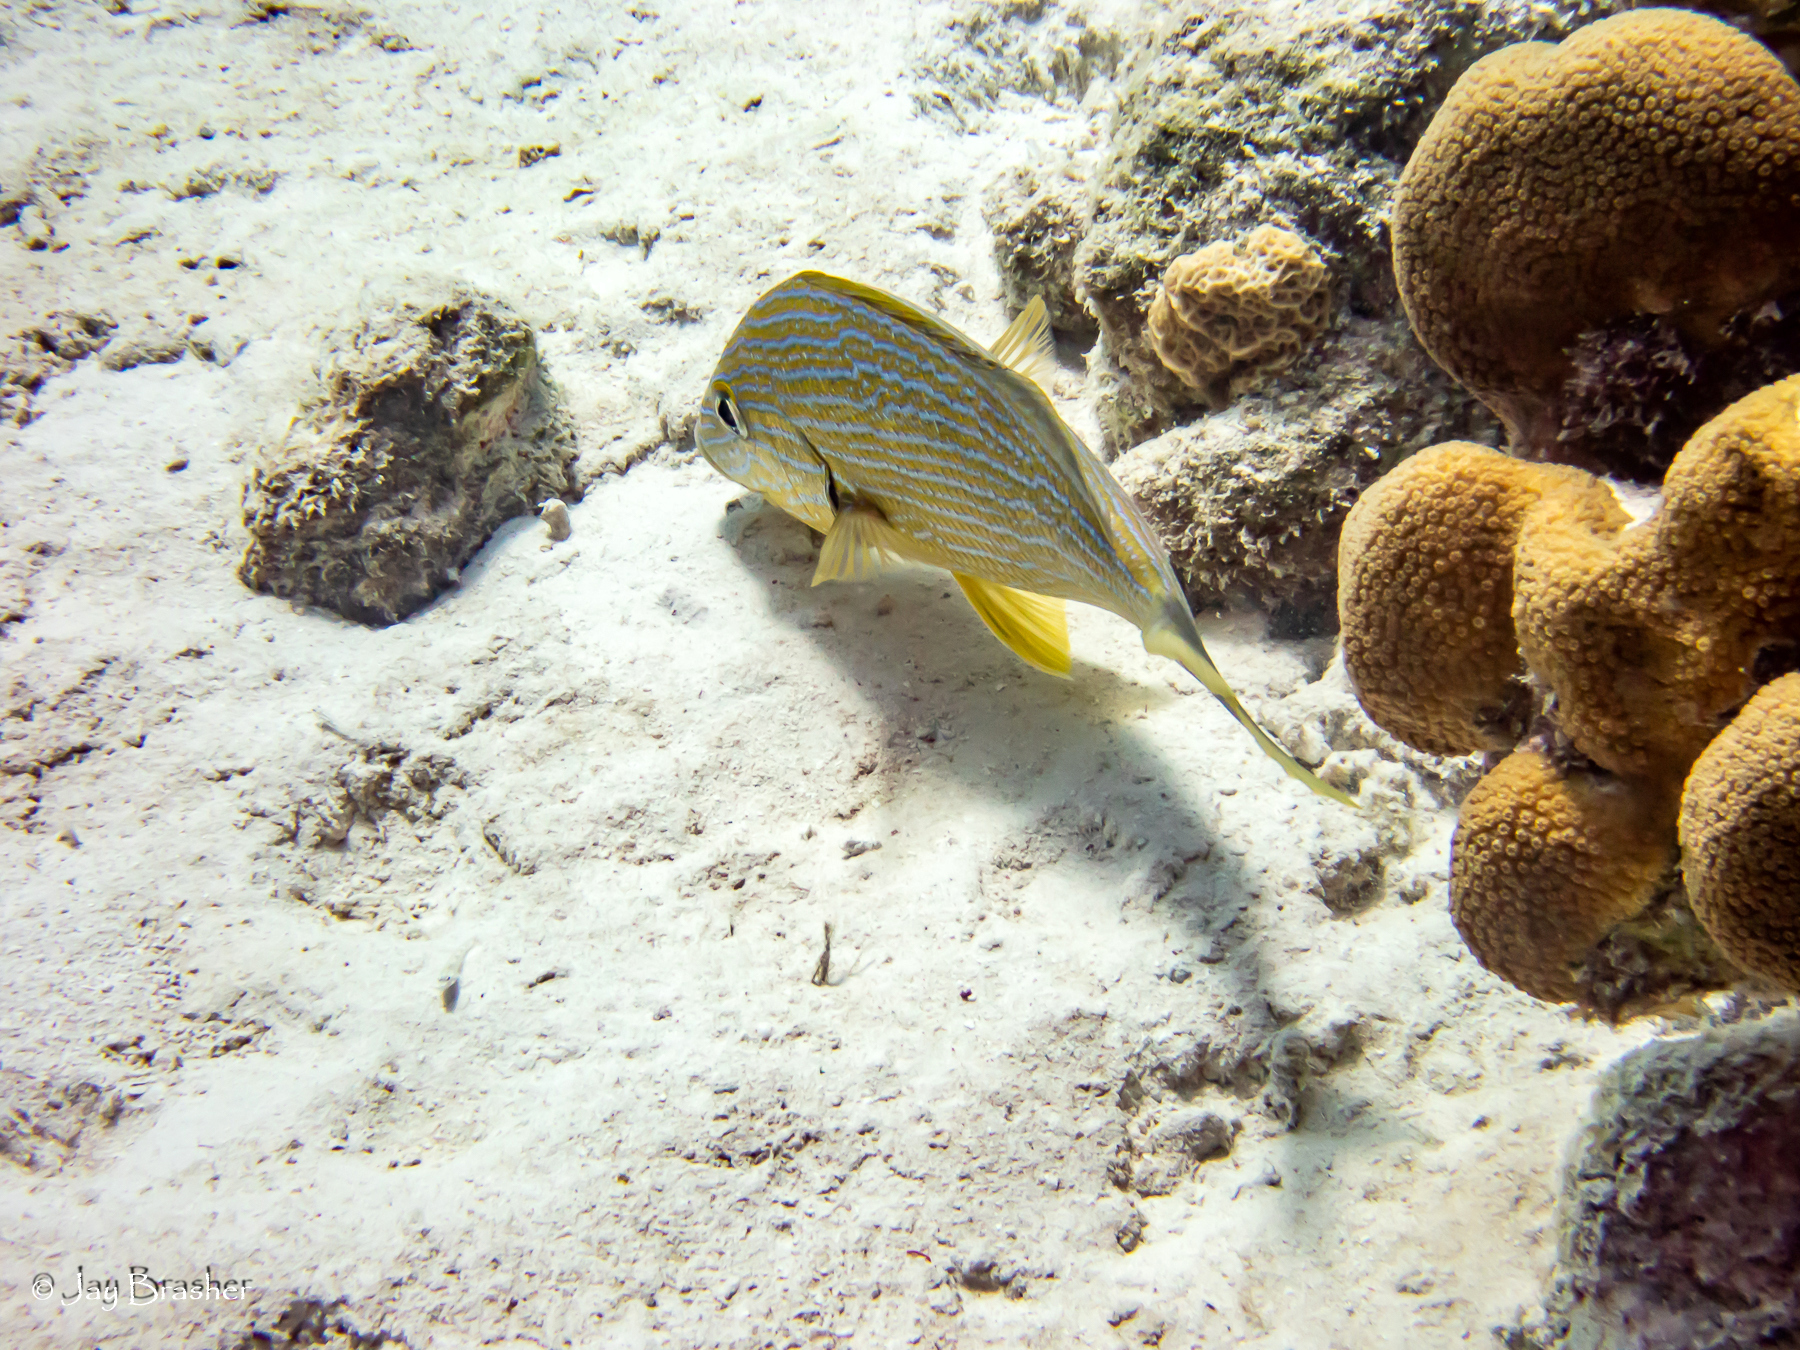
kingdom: Animalia
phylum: Chordata
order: Perciformes
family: Haemulidae
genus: Haemulon
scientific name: Haemulon sciurus
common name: Bluestriped grunt
